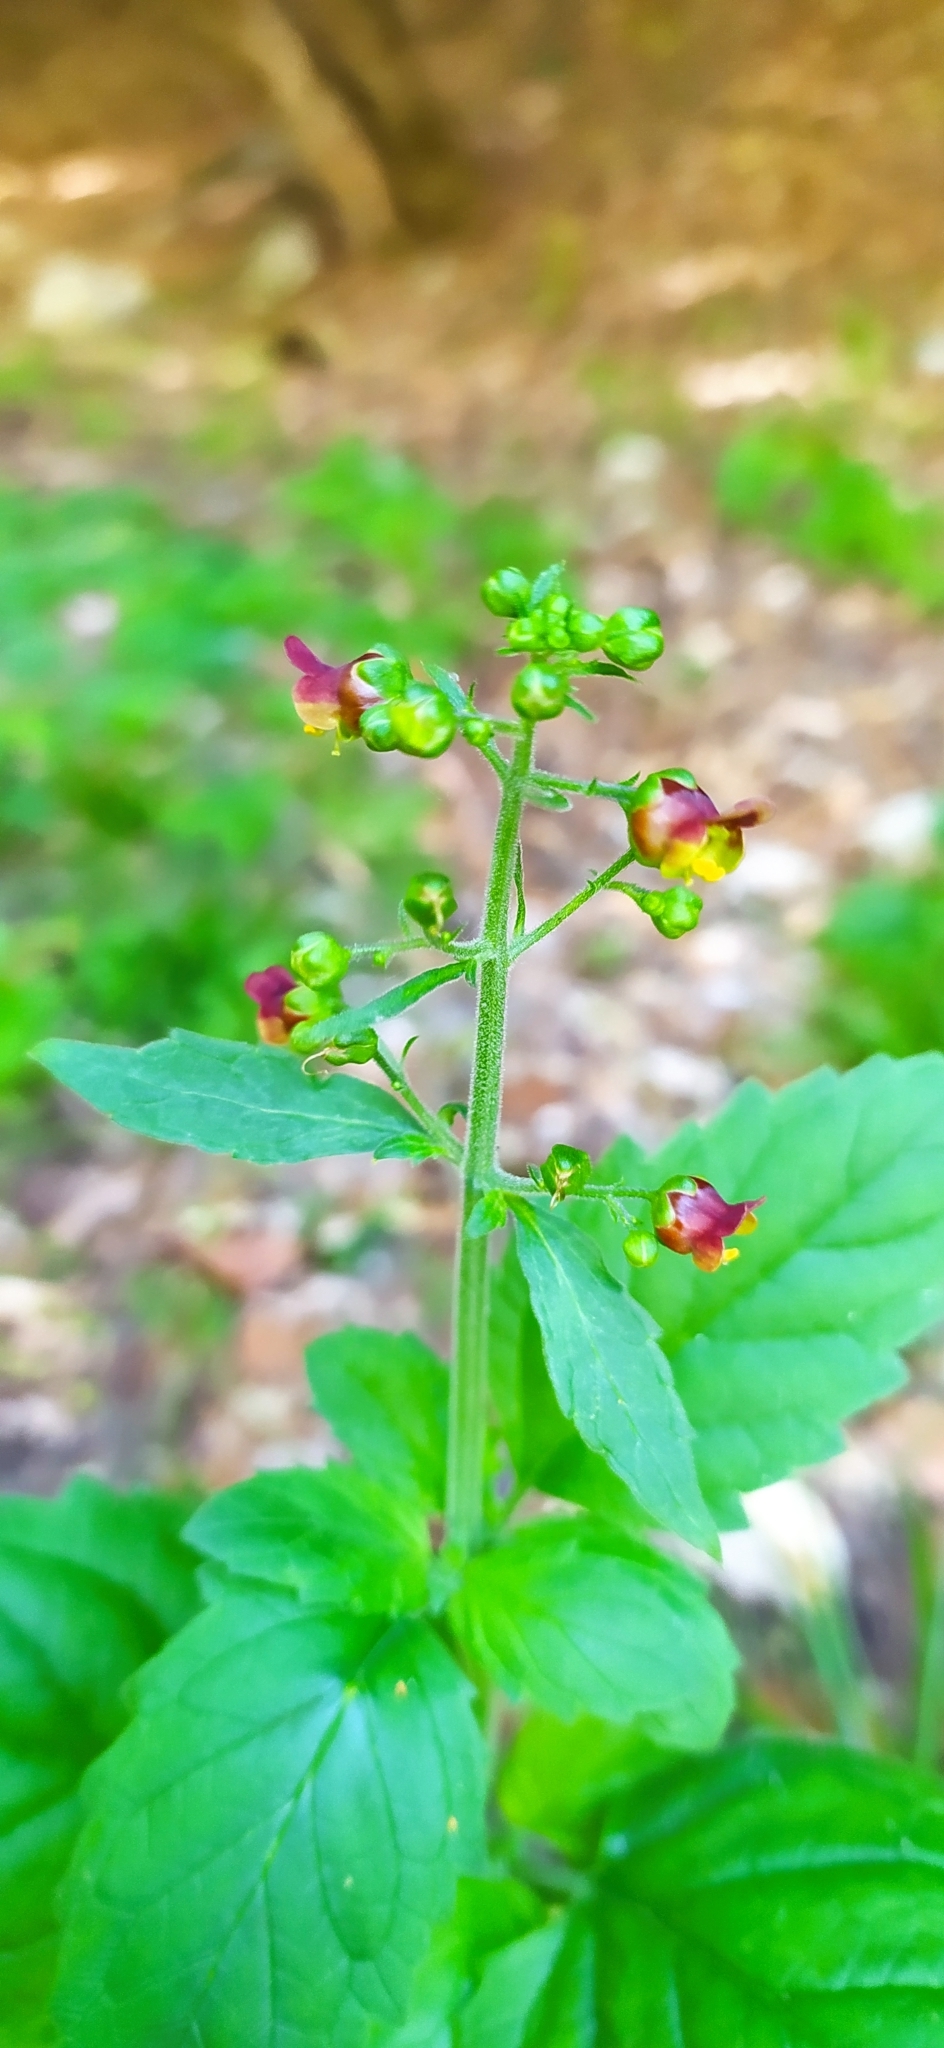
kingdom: Plantae
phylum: Tracheophyta
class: Magnoliopsida
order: Lamiales
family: Scrophulariaceae
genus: Scrophularia
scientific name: Scrophularia scopolii
